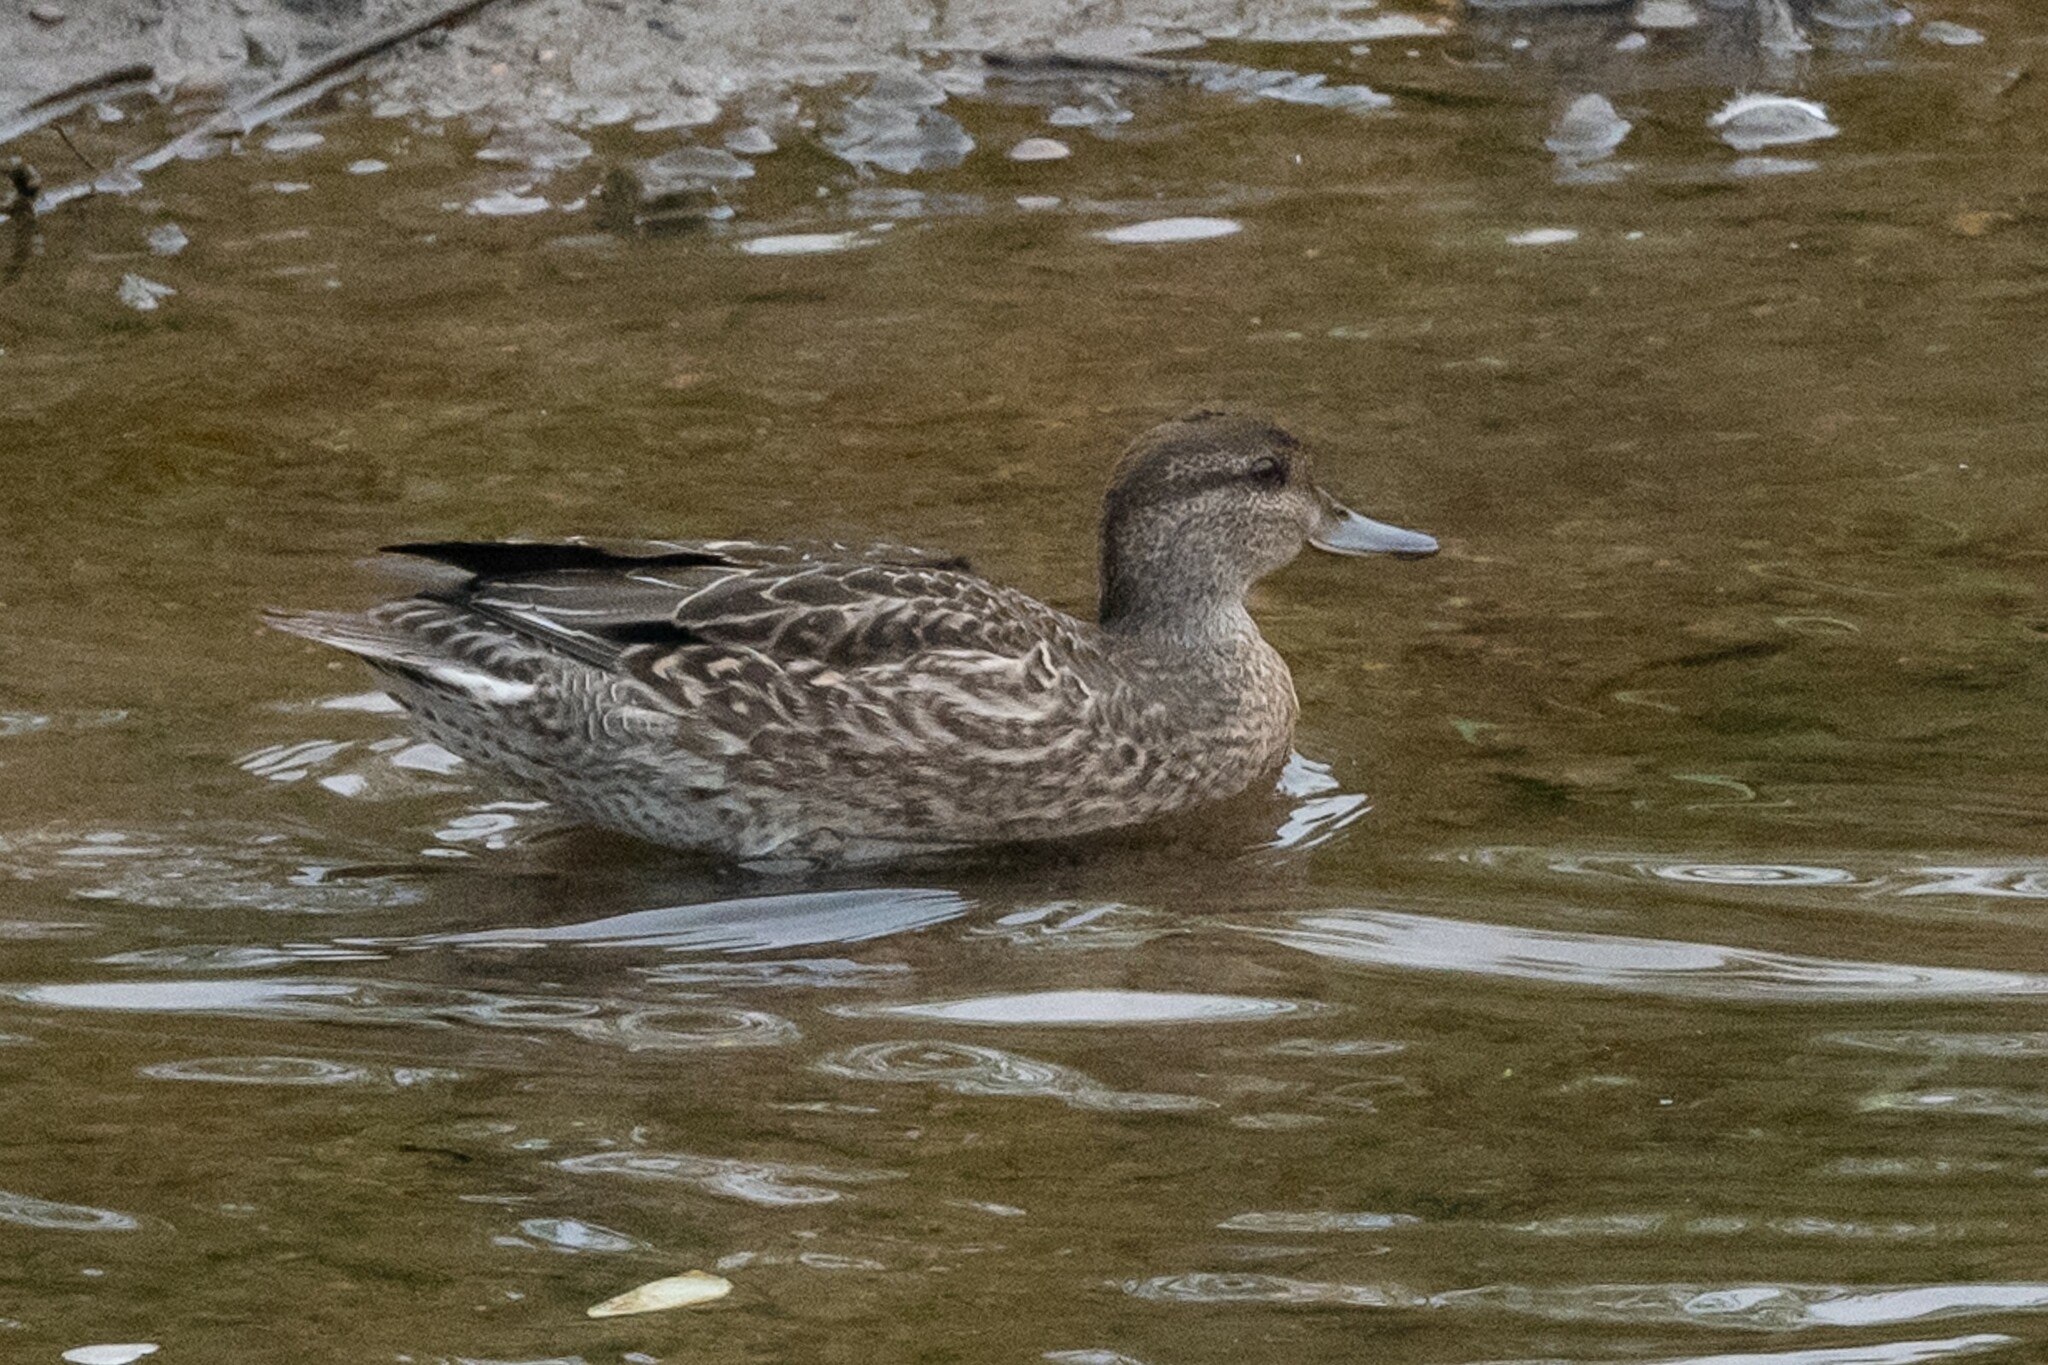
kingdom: Animalia
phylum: Chordata
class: Aves
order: Anseriformes
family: Anatidae
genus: Anas
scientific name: Anas crecca
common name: Eurasian teal
